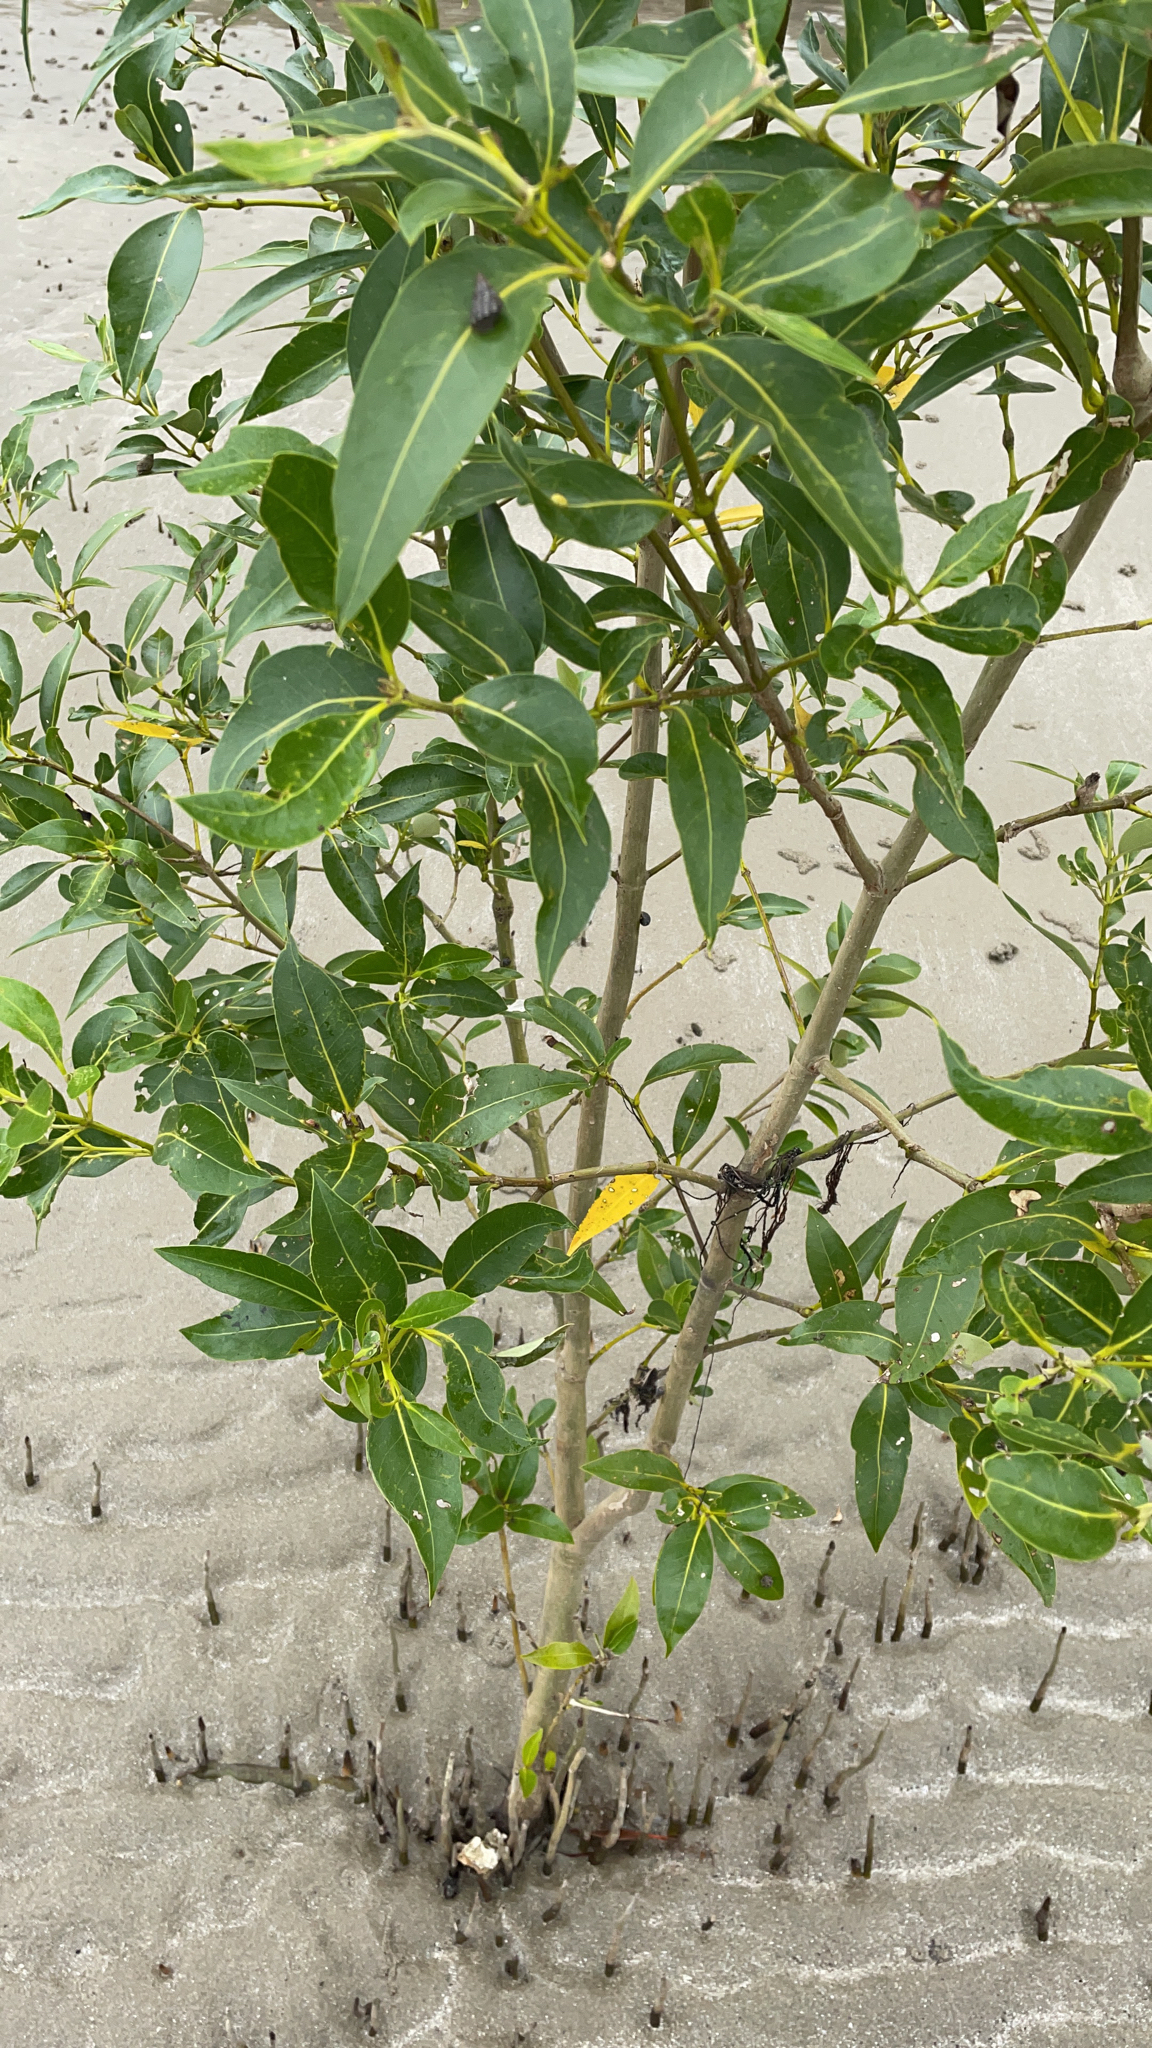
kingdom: Plantae
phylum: Tracheophyta
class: Magnoliopsida
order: Lamiales
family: Acanthaceae
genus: Avicennia
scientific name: Avicennia marina
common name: Gray mangrove
